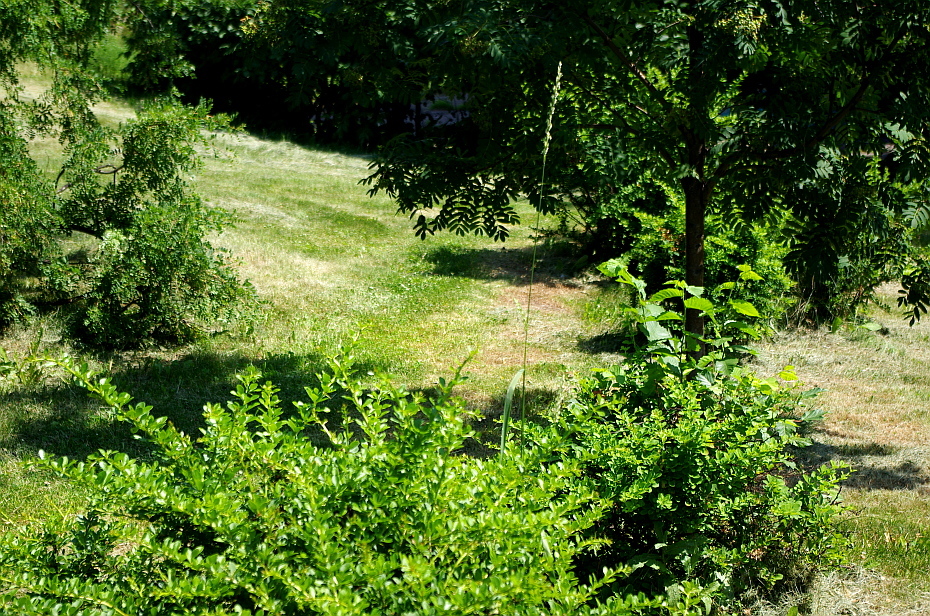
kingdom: Plantae
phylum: Tracheophyta
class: Liliopsida
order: Poales
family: Poaceae
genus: Elymus
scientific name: Elymus repens
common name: Quackgrass
